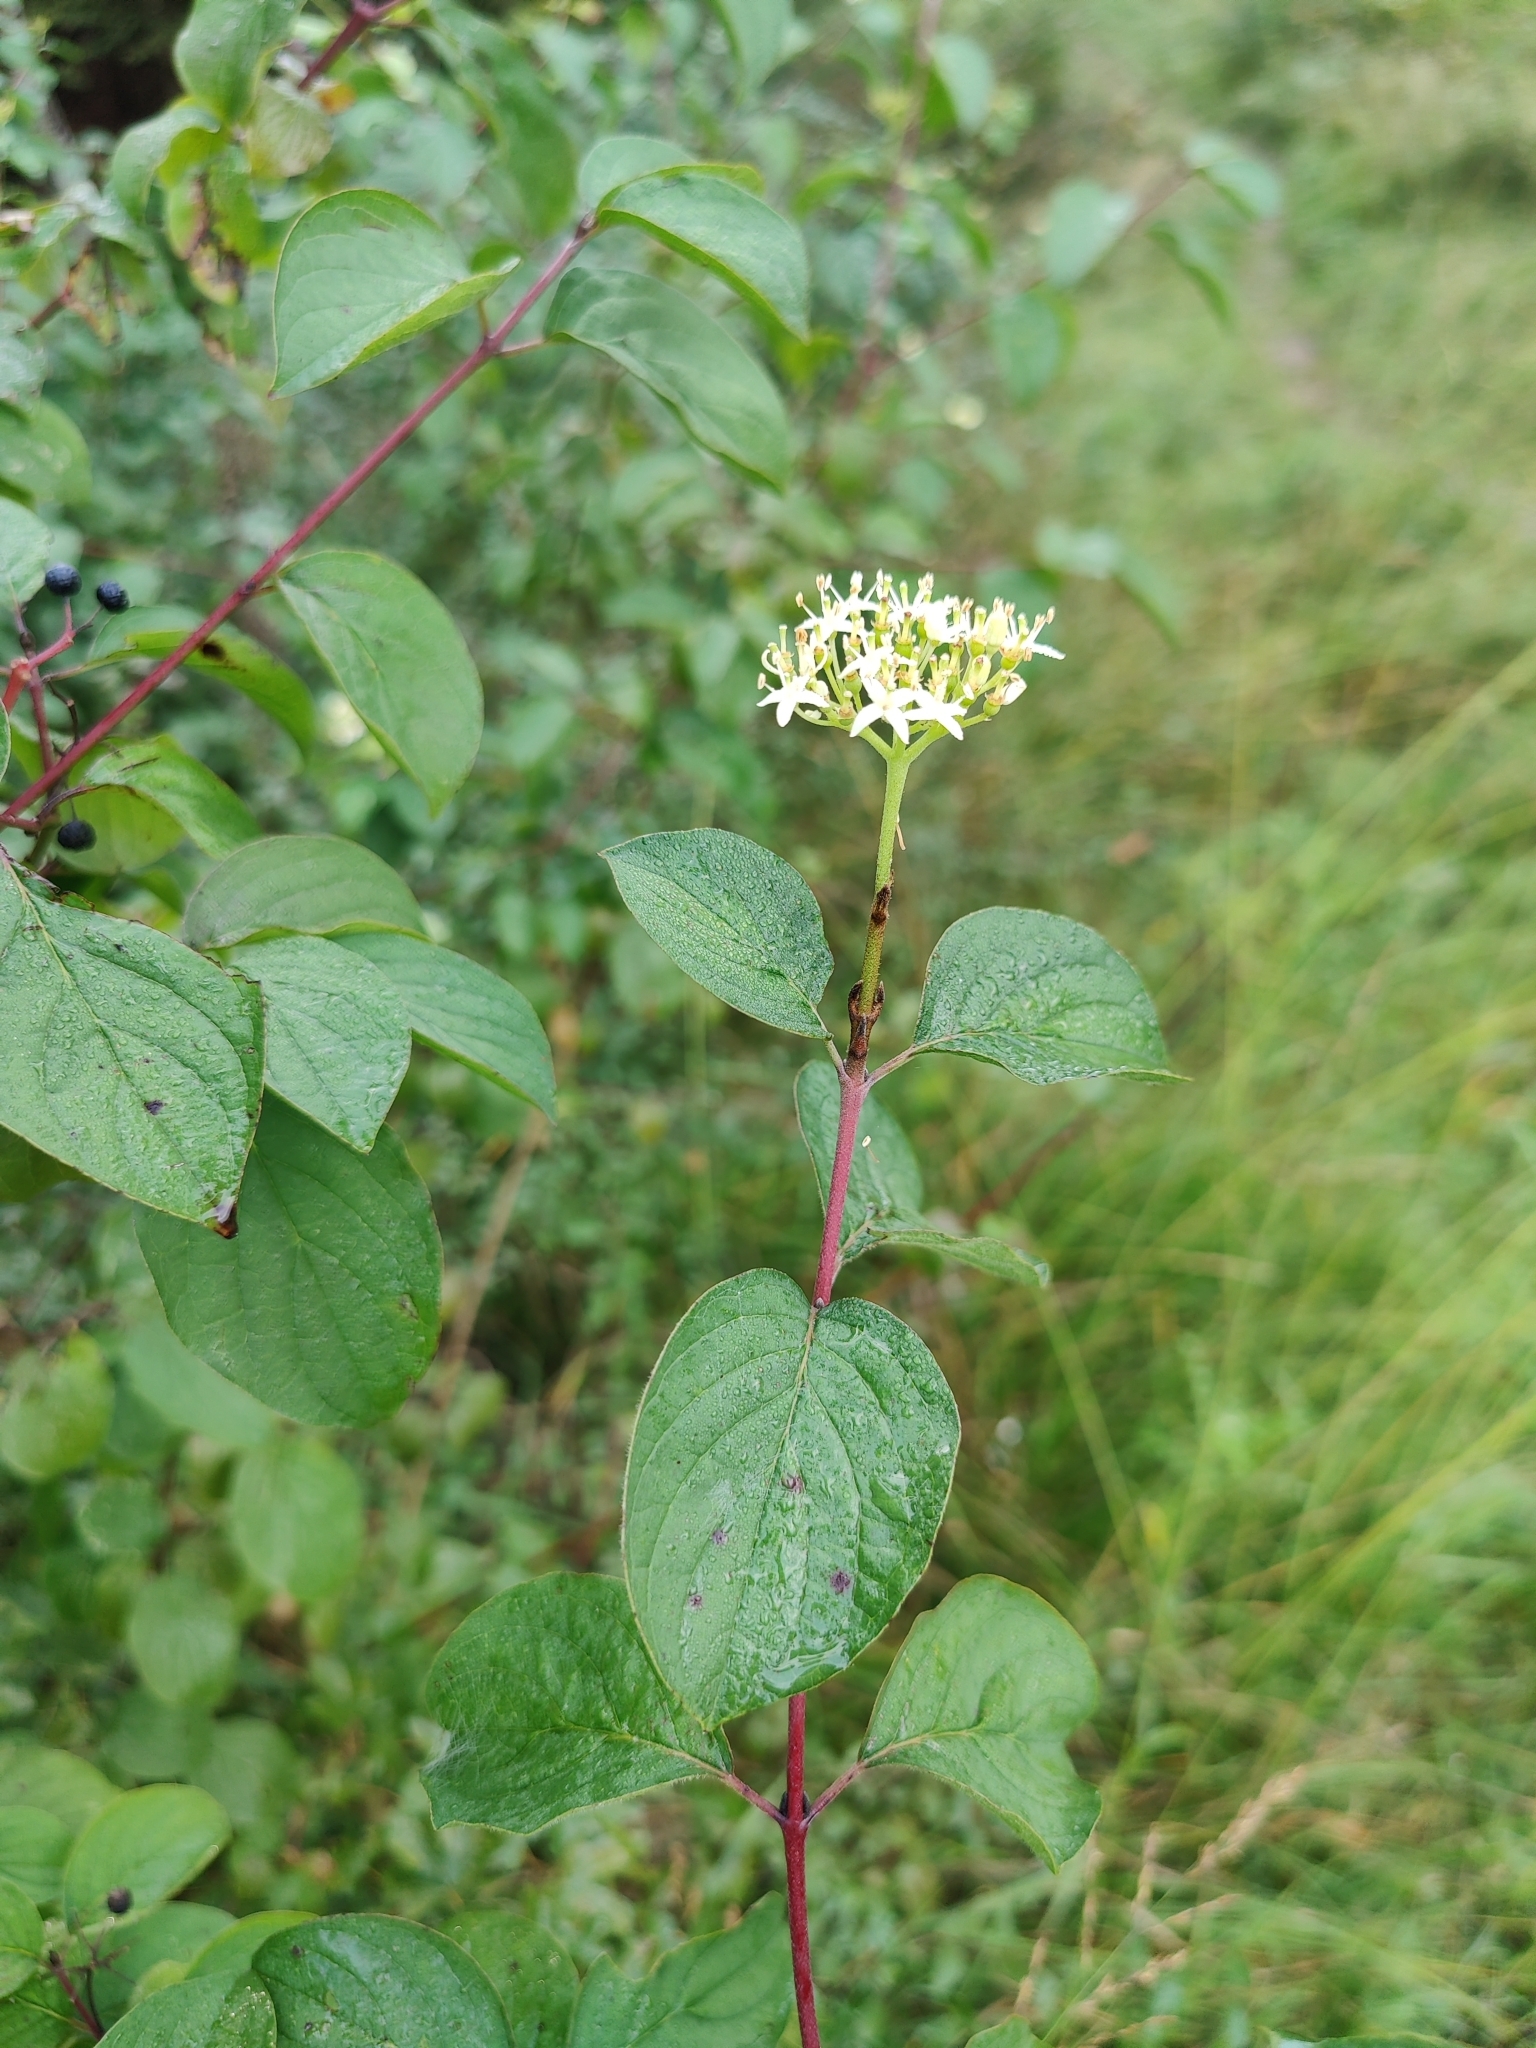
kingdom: Plantae
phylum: Tracheophyta
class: Magnoliopsida
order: Cornales
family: Cornaceae
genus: Cornus
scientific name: Cornus sanguinea
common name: Dogwood
